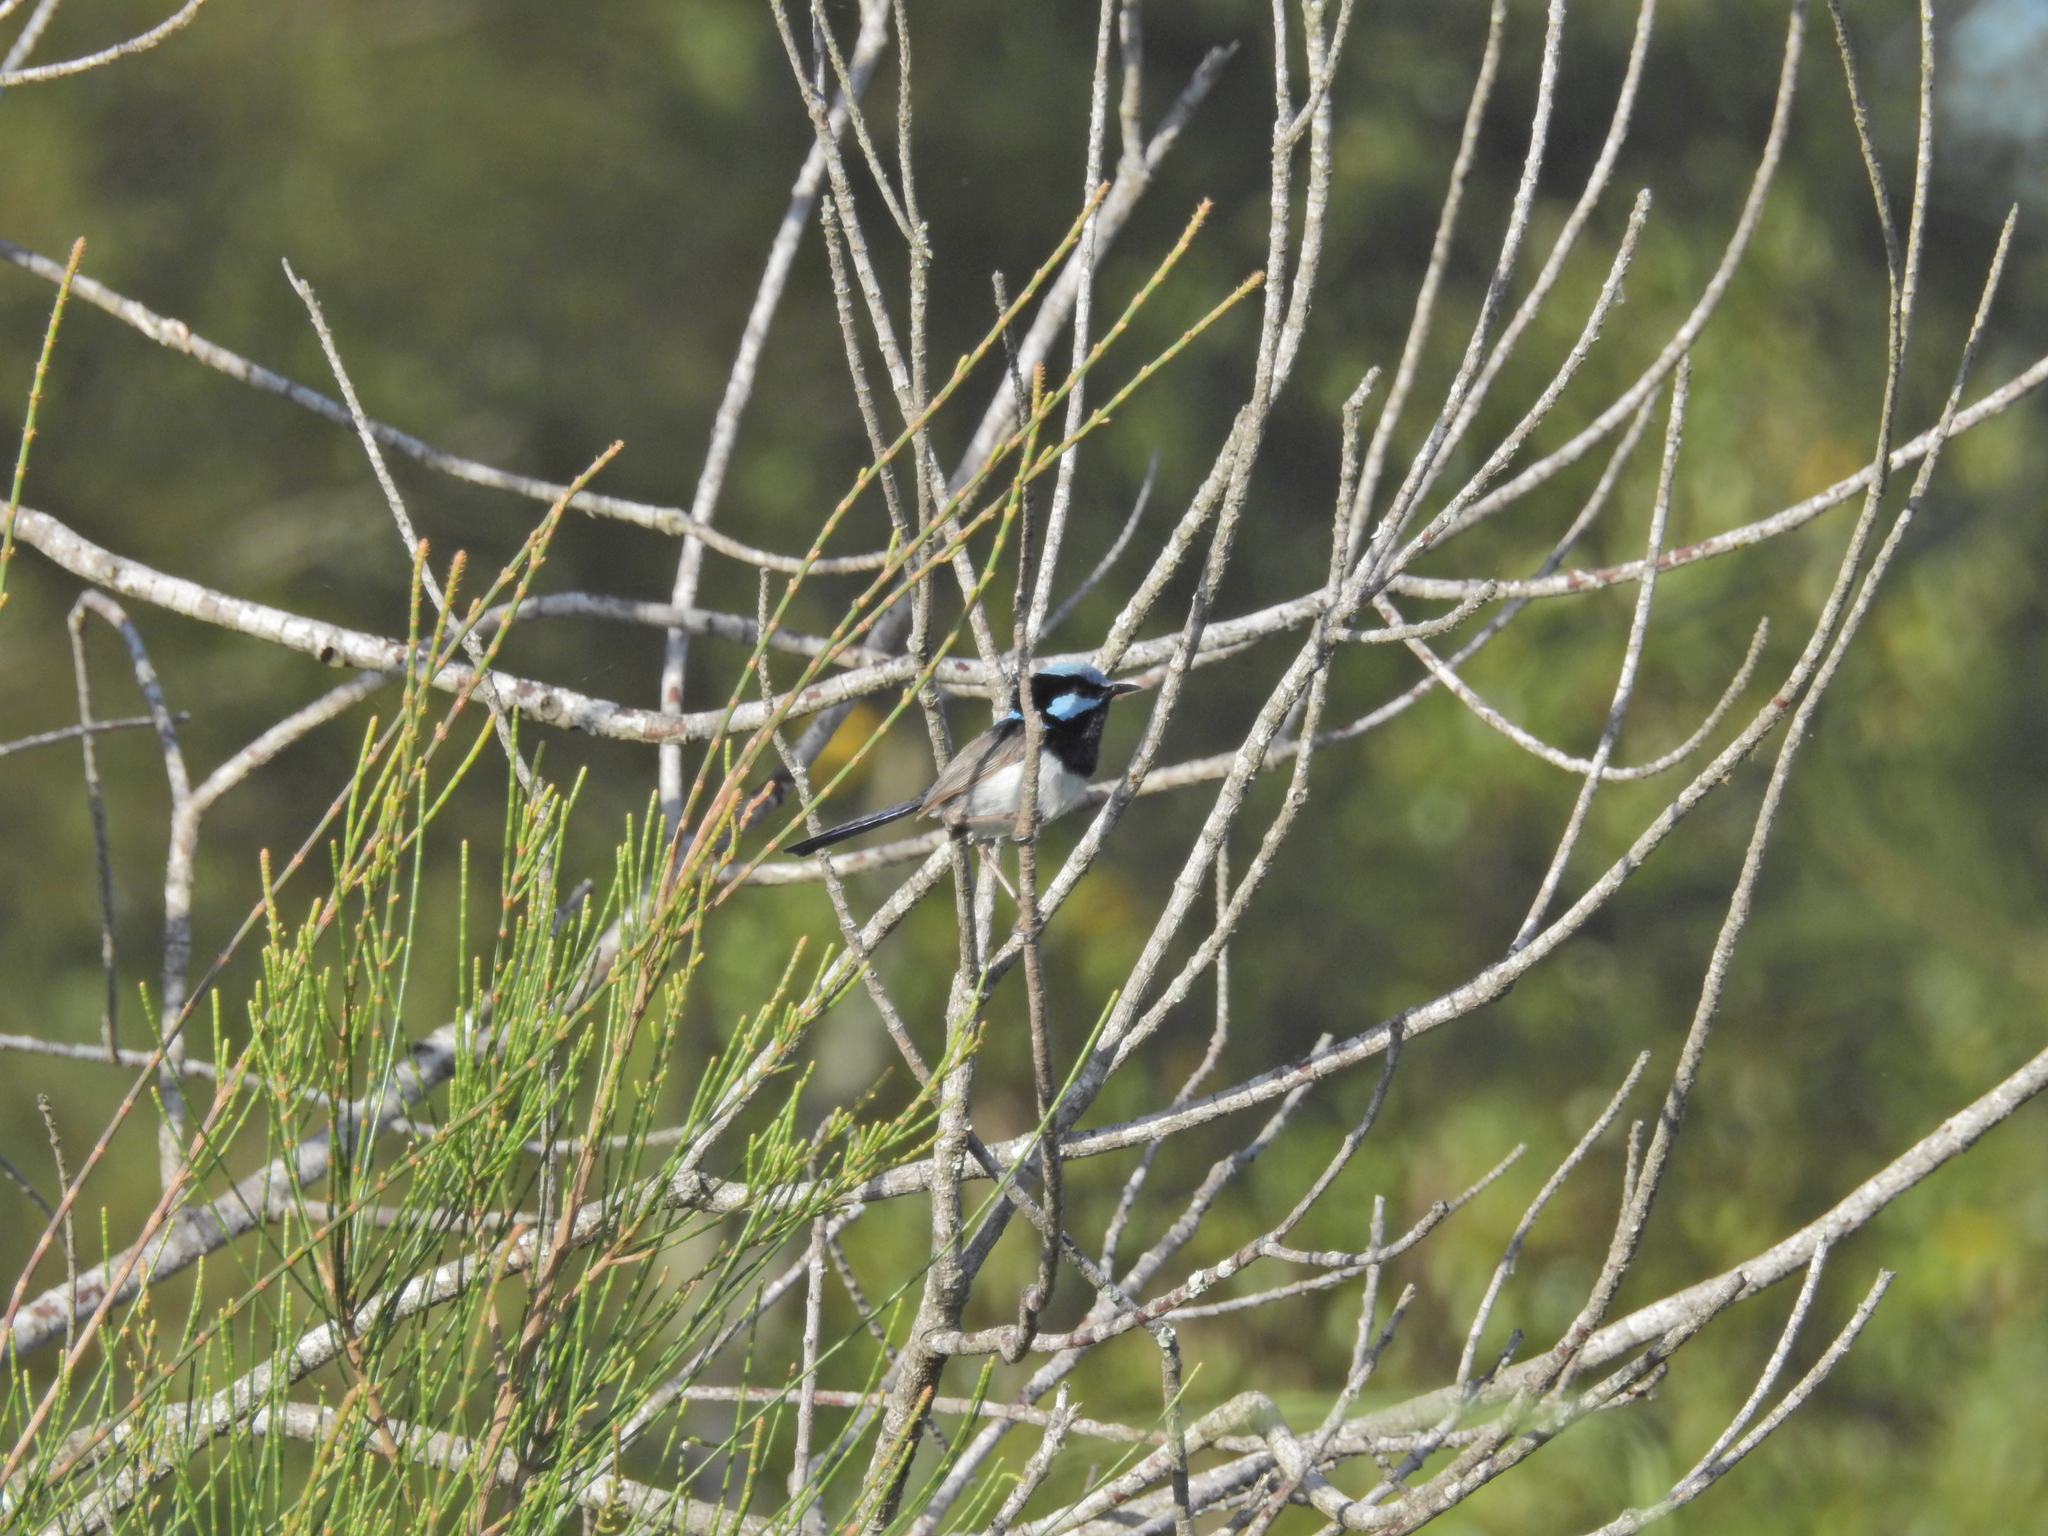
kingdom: Animalia
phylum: Chordata
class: Aves
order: Passeriformes
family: Maluridae
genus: Malurus
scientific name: Malurus cyaneus
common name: Superb fairywren
